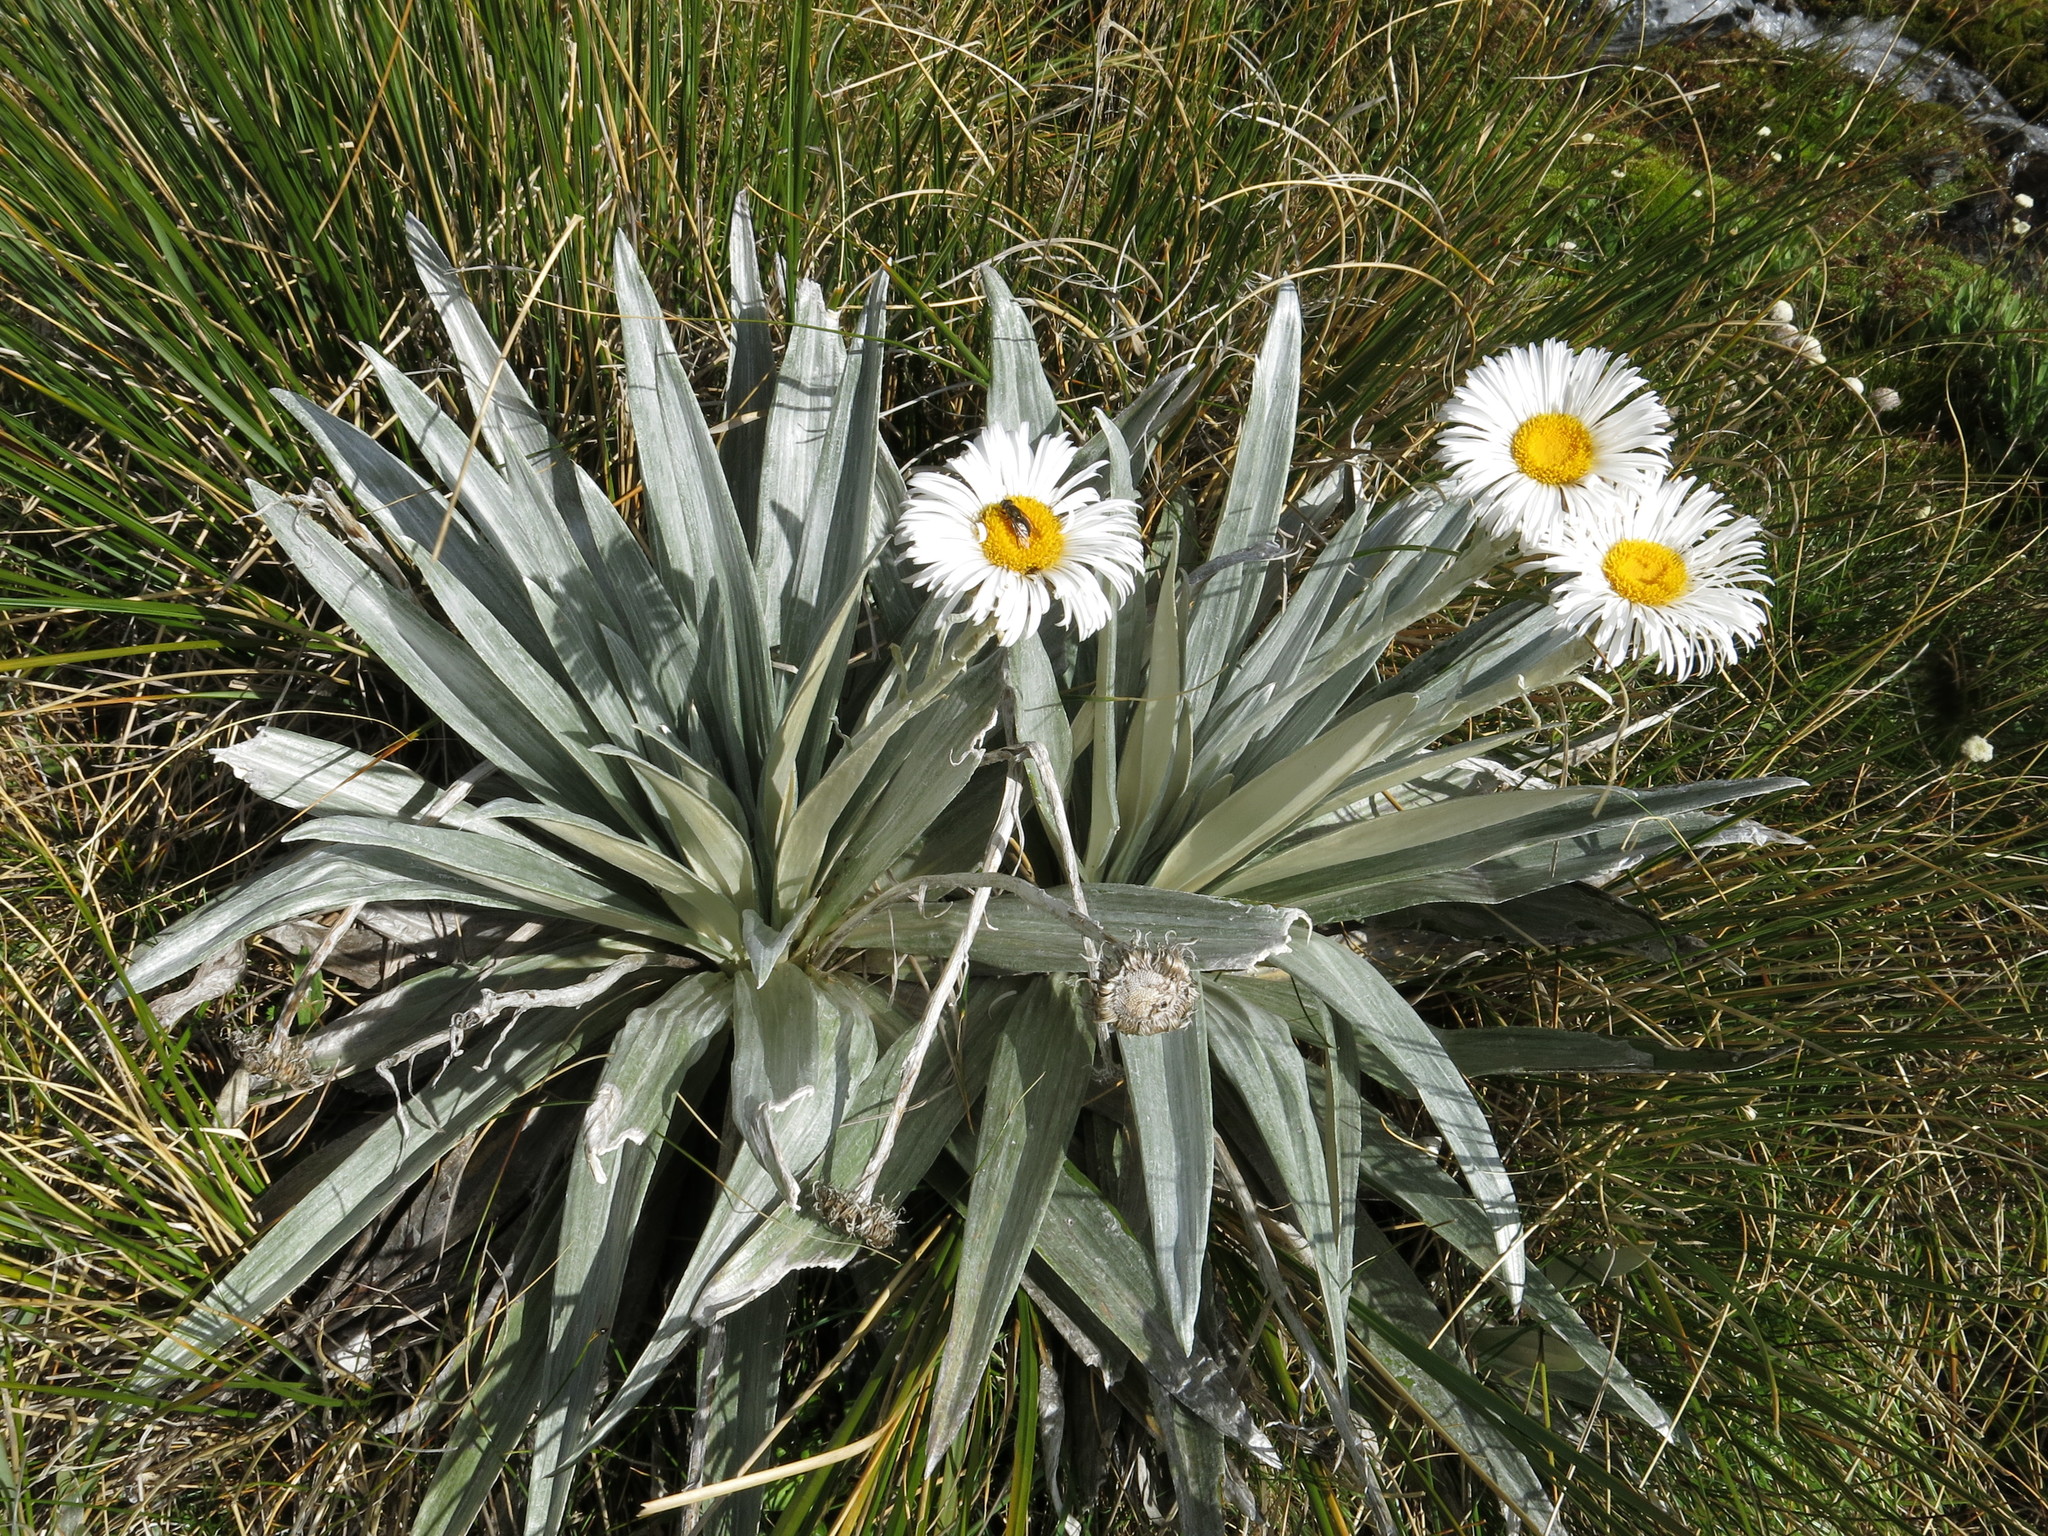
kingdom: Plantae
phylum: Tracheophyta
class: Magnoliopsida
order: Asterales
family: Asteraceae
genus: Celmisia
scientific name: Celmisia semicordata
